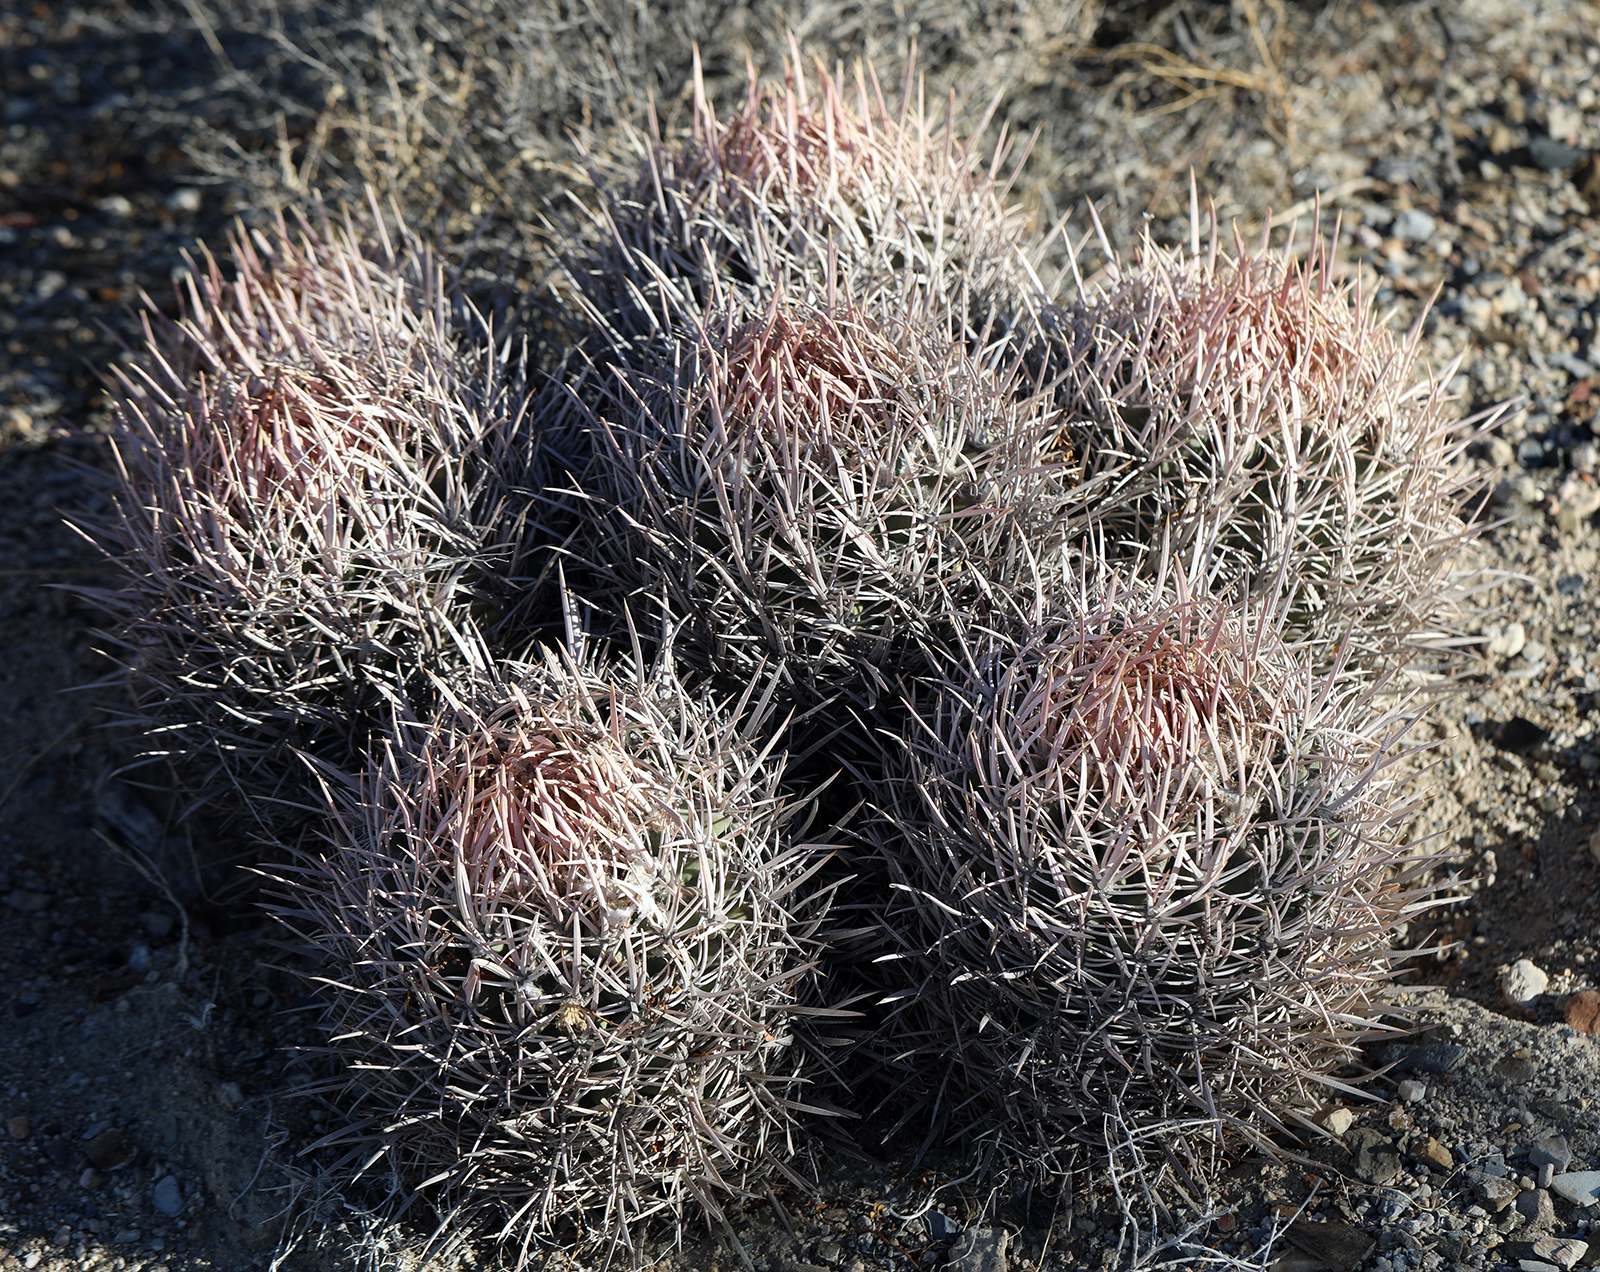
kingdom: Plantae
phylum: Tracheophyta
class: Magnoliopsida
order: Caryophyllales
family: Cactaceae
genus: Echinocactus
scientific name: Echinocactus polycephalus
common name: Cottontop cactus
